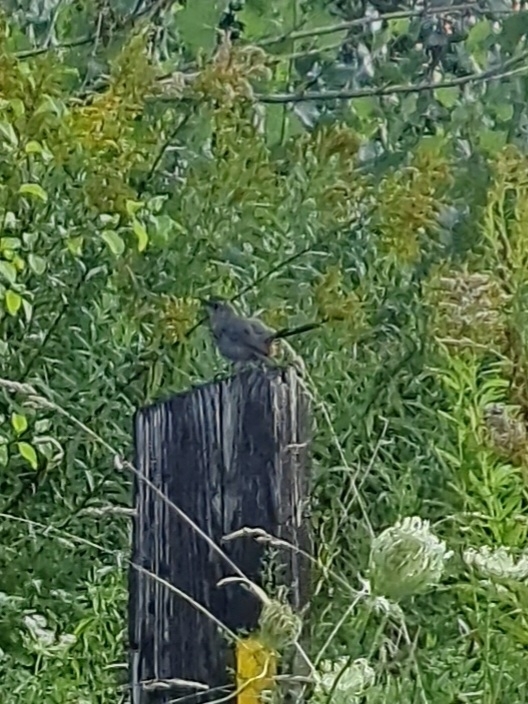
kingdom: Animalia
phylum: Chordata
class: Aves
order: Passeriformes
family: Mimidae
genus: Dumetella
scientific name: Dumetella carolinensis
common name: Gray catbird
